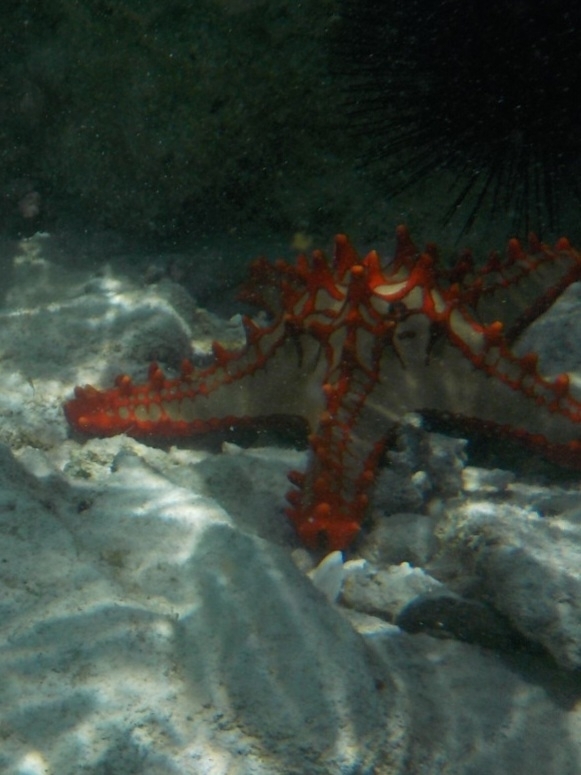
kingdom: Animalia
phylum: Echinodermata
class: Asteroidea
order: Valvatida
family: Oreasteridae
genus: Protoreaster
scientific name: Protoreaster lincki
